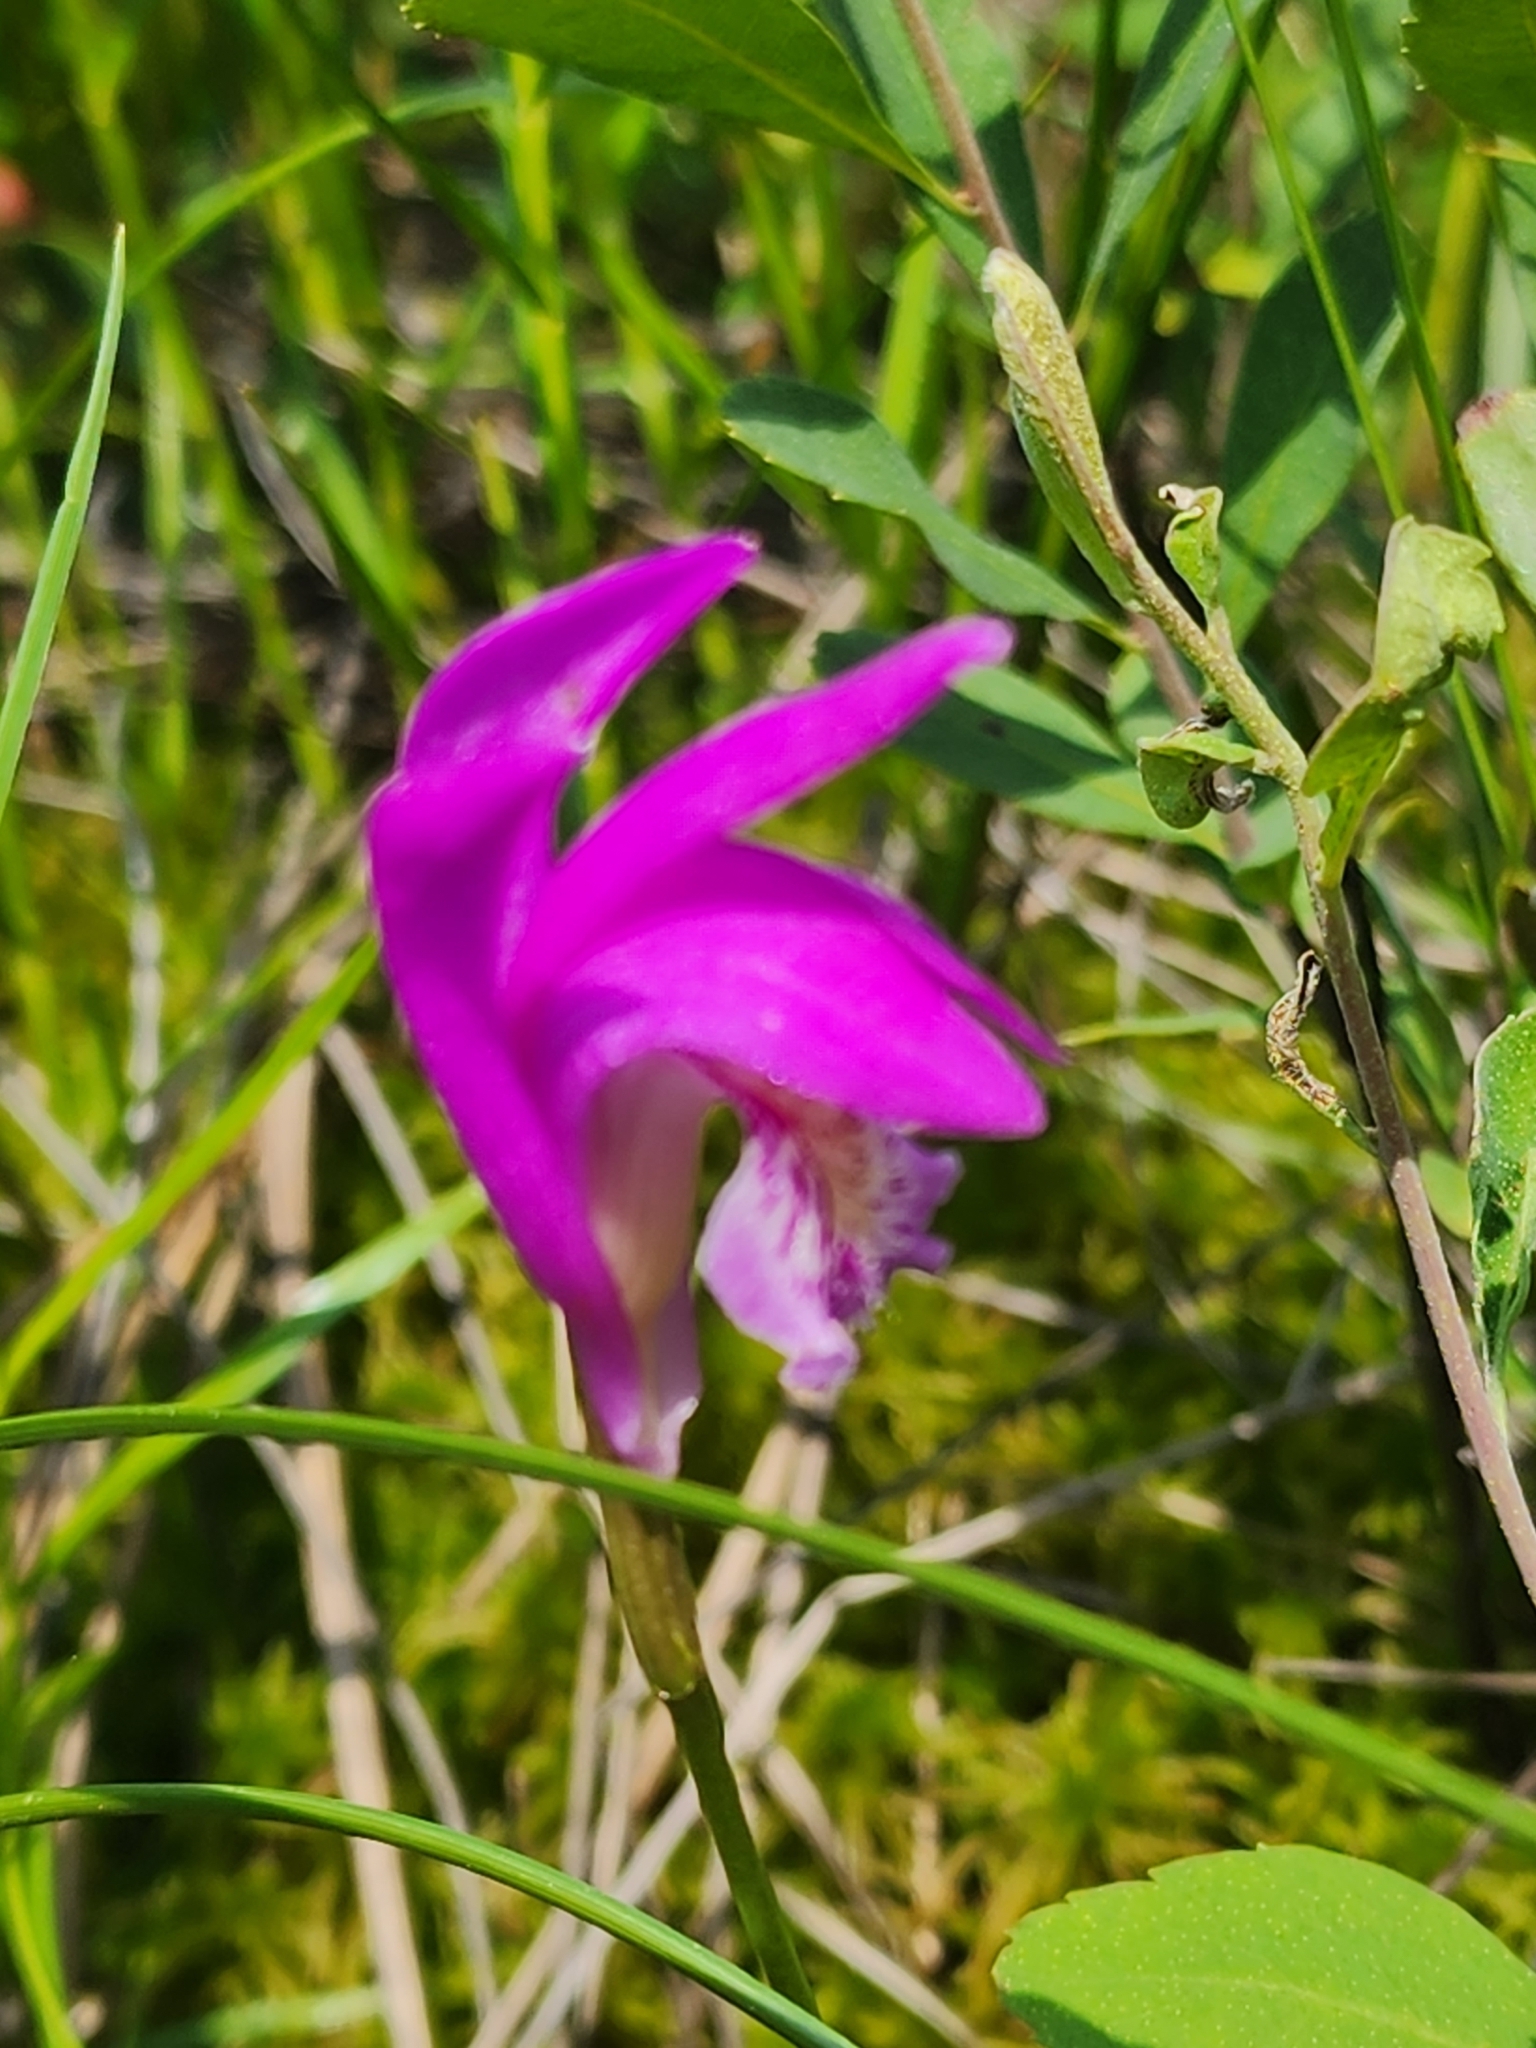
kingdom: Plantae
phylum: Tracheophyta
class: Liliopsida
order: Asparagales
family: Orchidaceae
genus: Arethusa
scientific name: Arethusa bulbosa
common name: Arethusa
